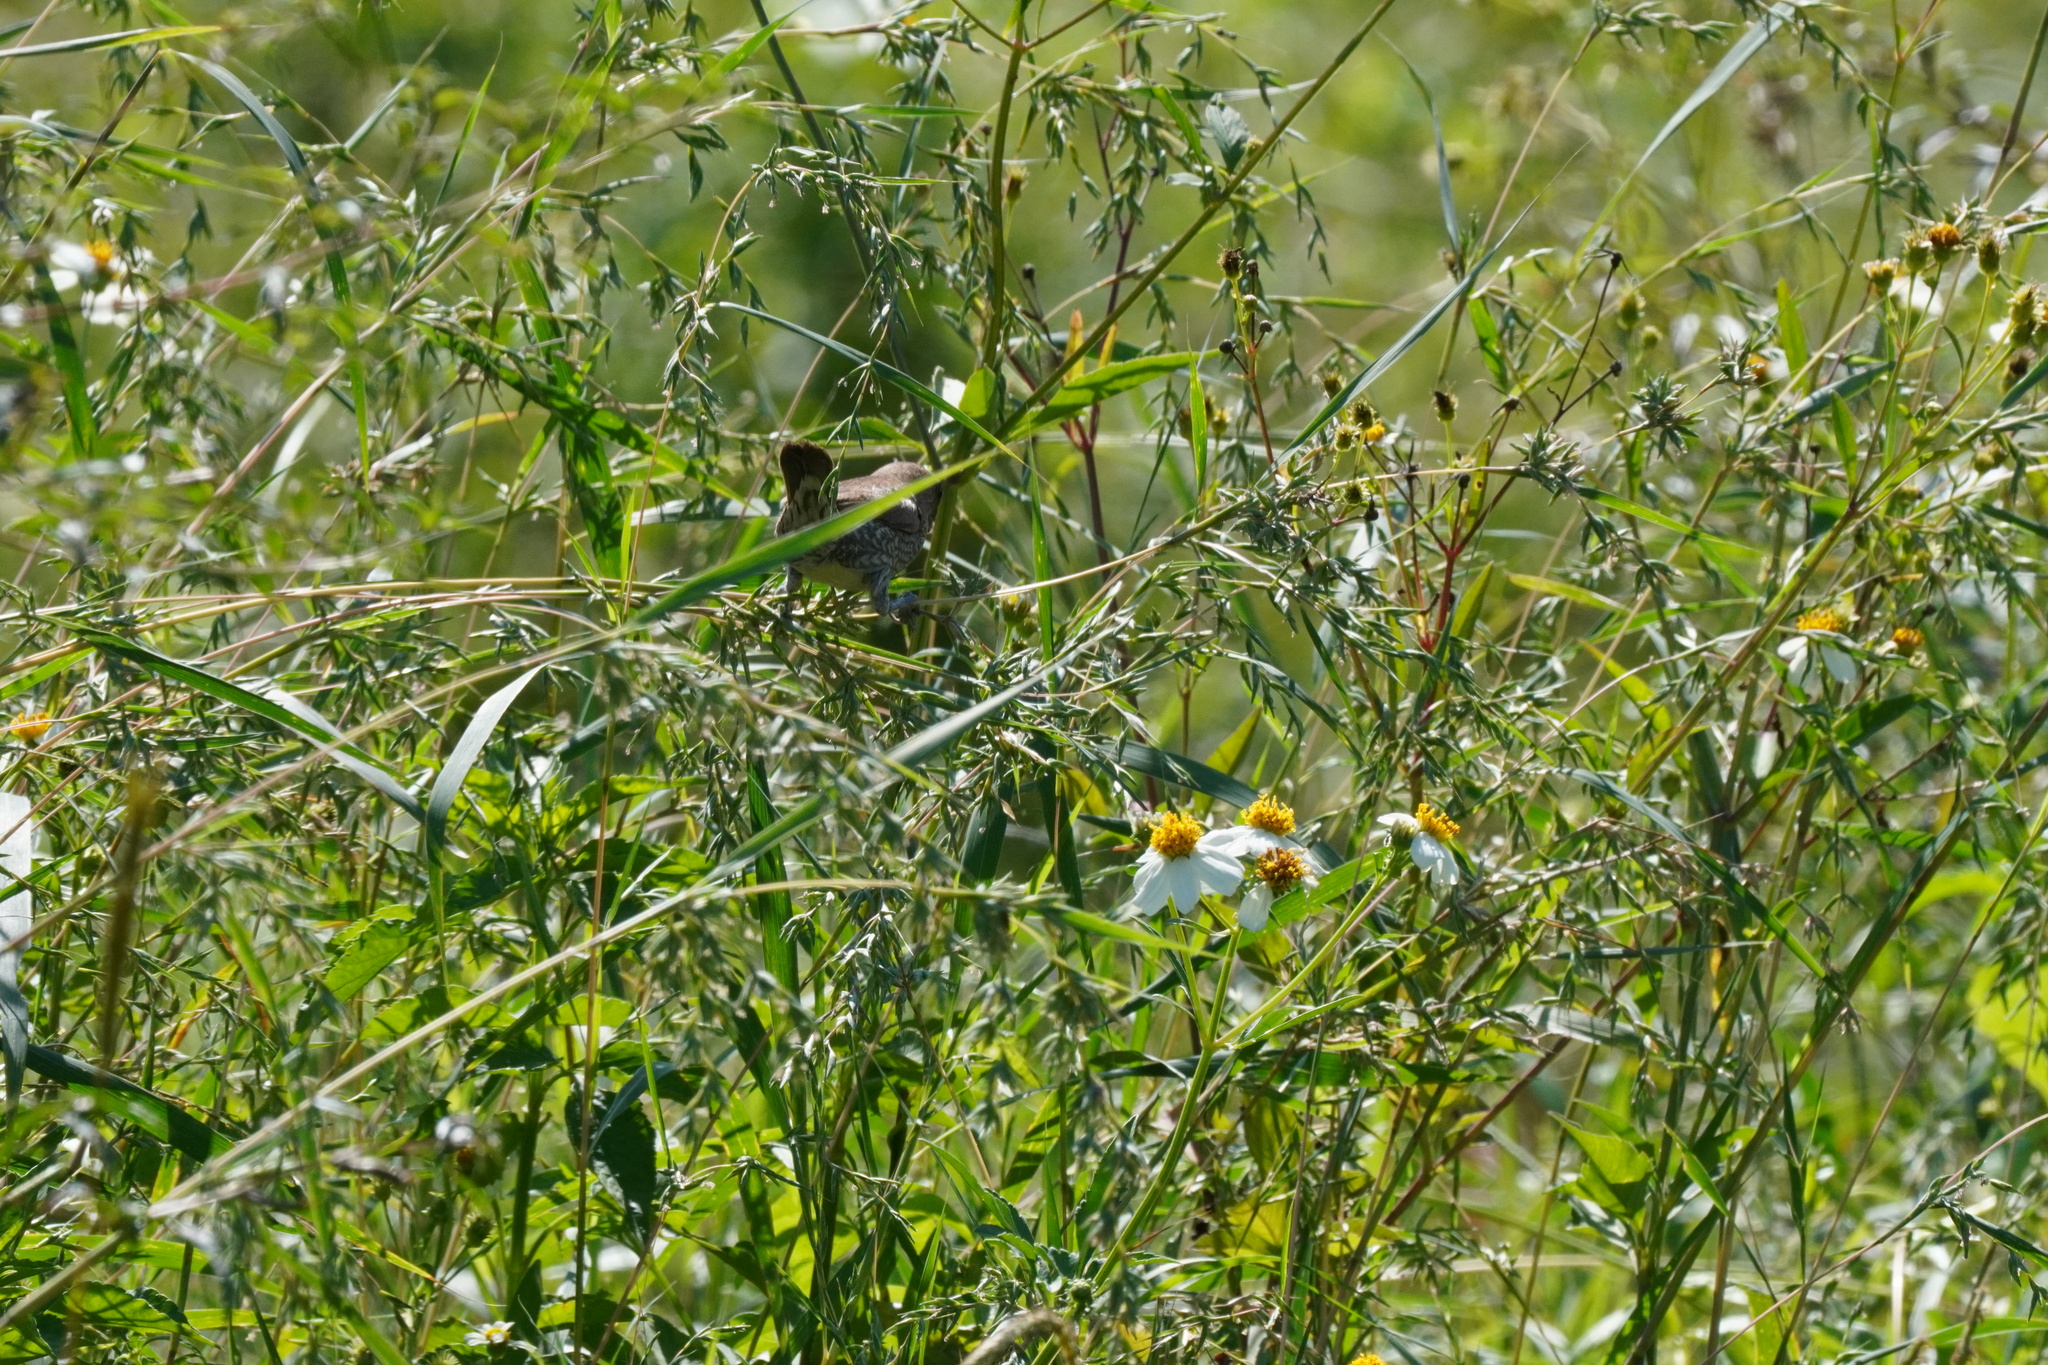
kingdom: Animalia
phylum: Chordata
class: Aves
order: Passeriformes
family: Estrildidae
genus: Lonchura
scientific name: Lonchura punctulata
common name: Scaly-breasted munia
